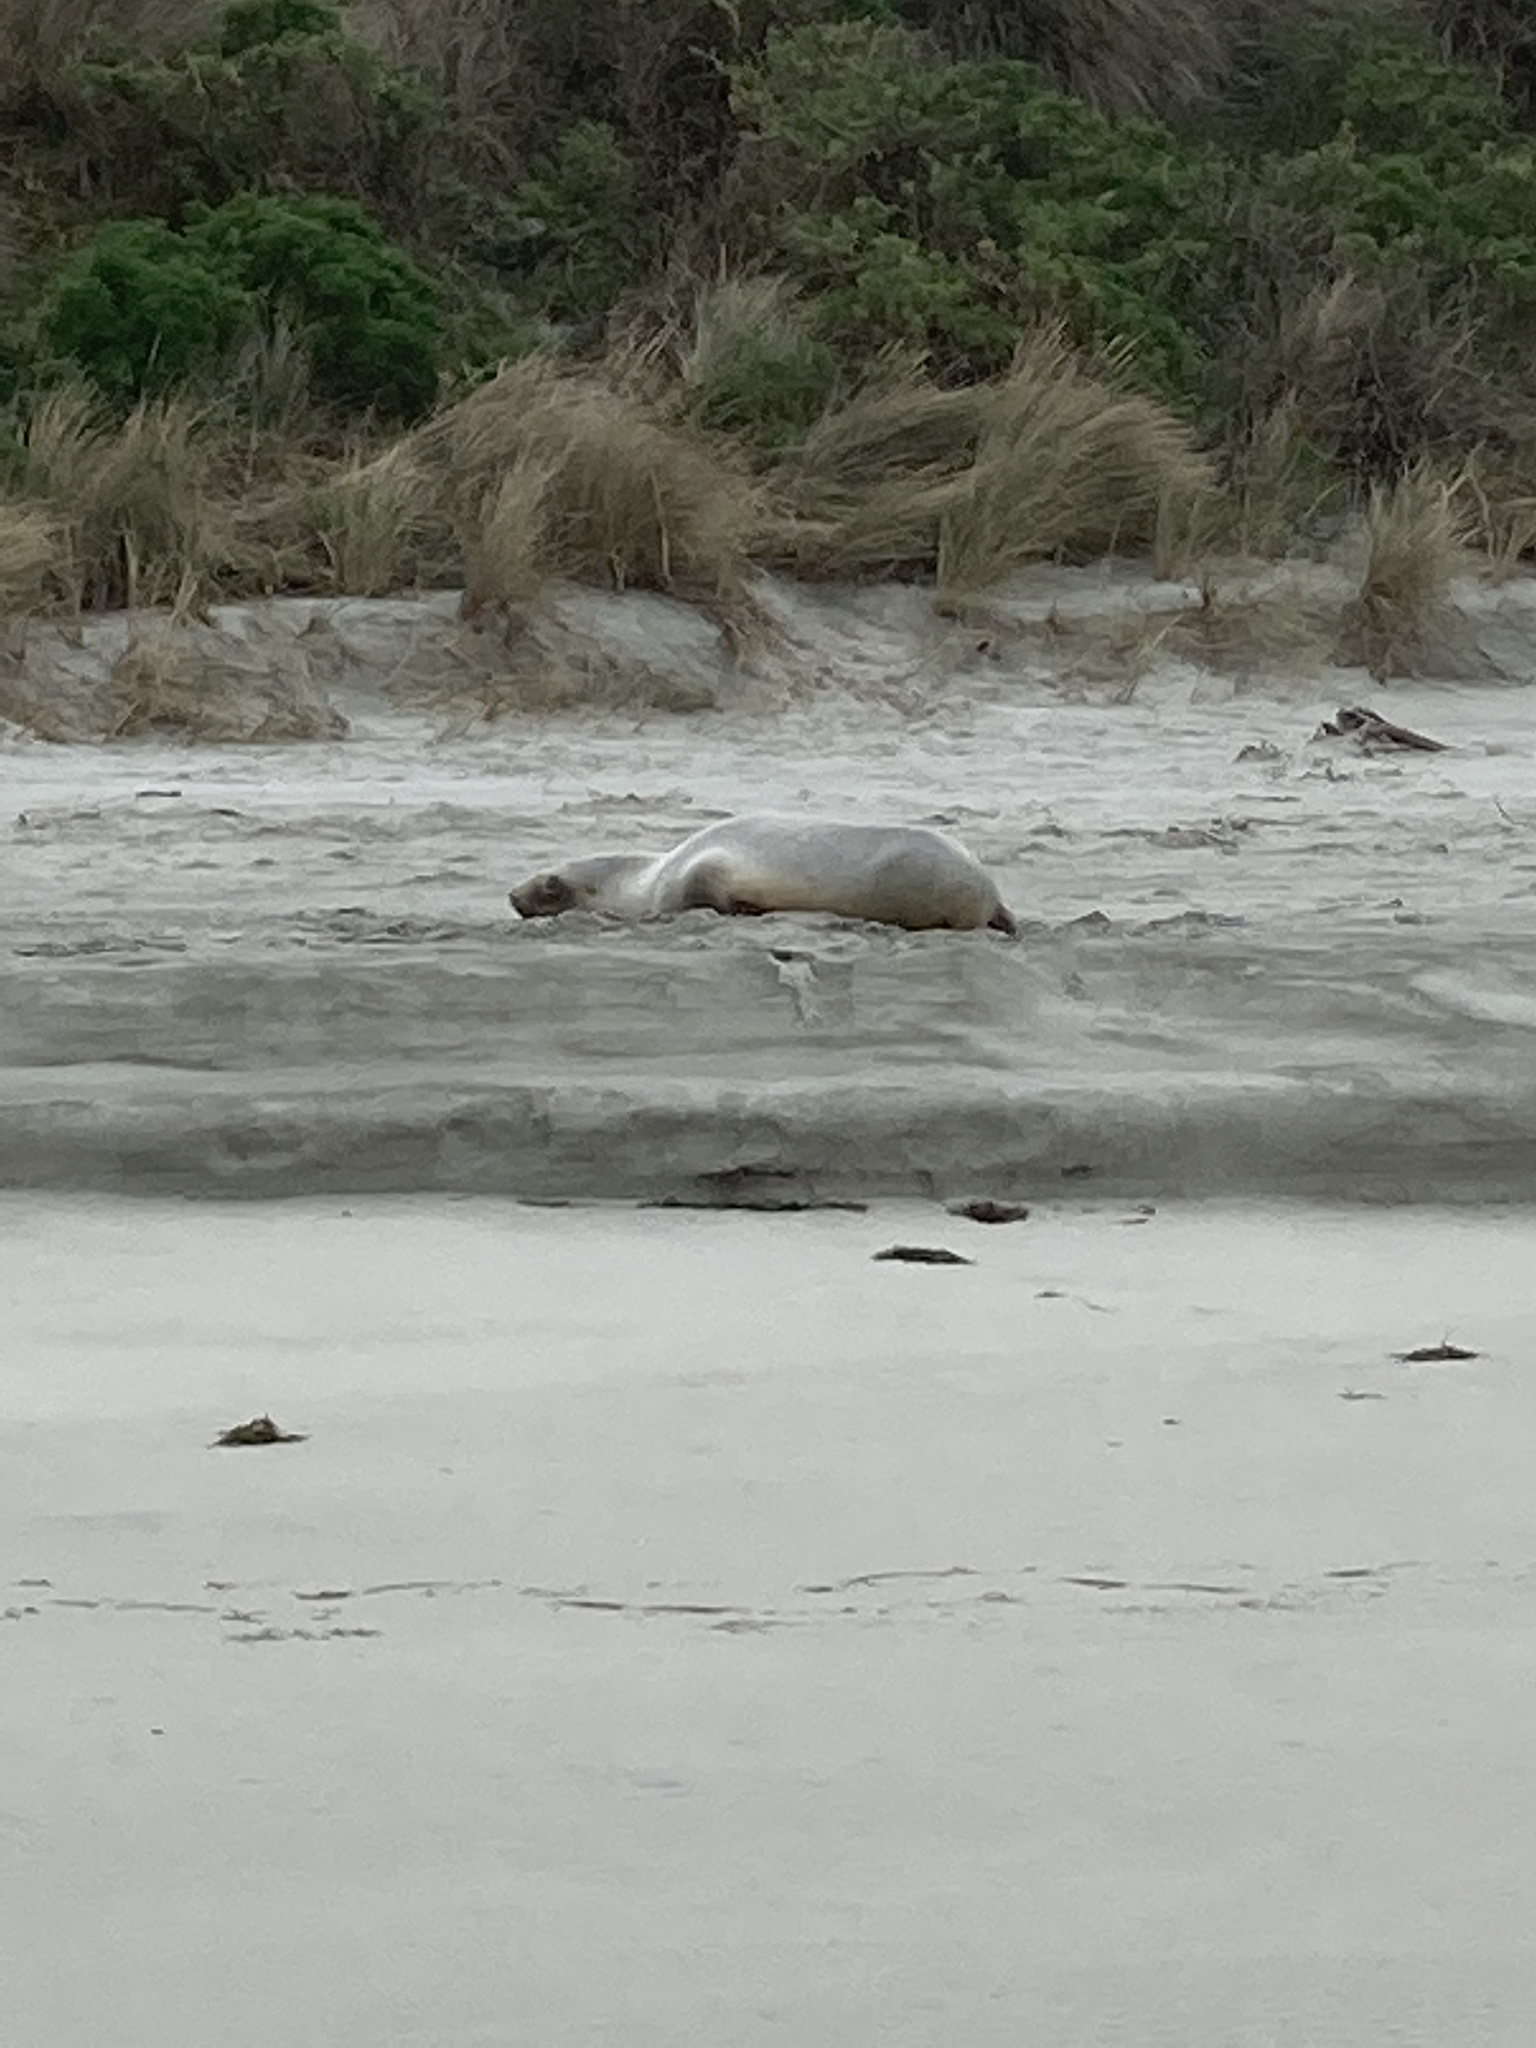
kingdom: Animalia
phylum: Chordata
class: Mammalia
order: Carnivora
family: Otariidae
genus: Phocarctos
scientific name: Phocarctos hookeri
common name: New zealand sea lion
